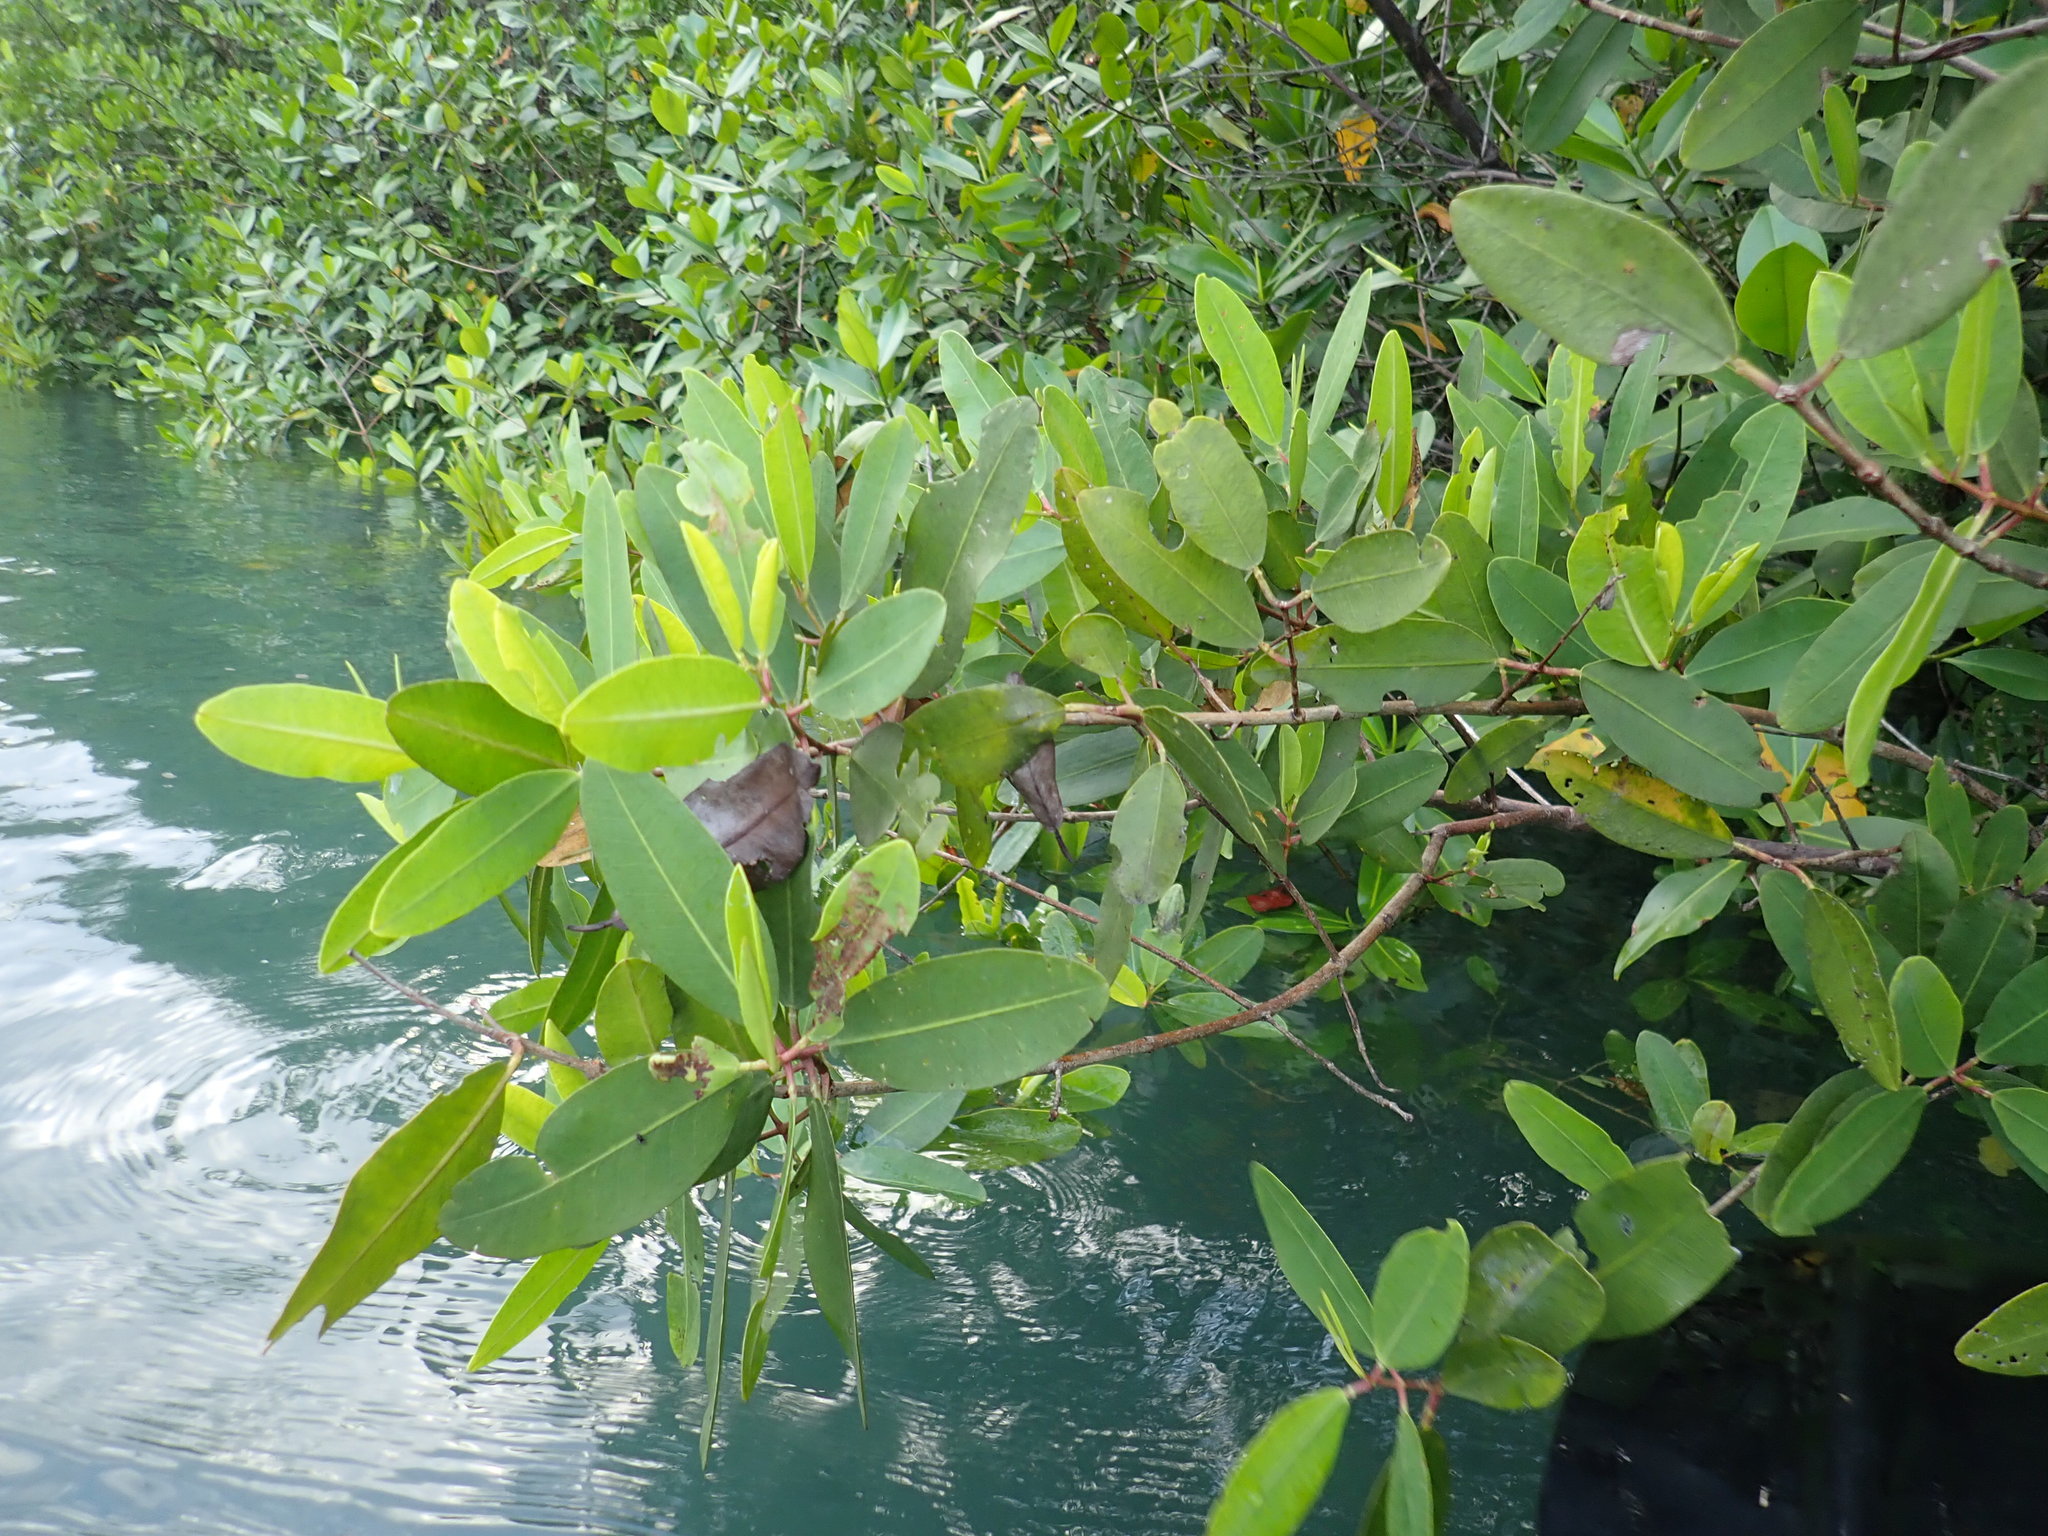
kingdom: Plantae
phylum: Tracheophyta
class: Magnoliopsida
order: Myrtales
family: Combretaceae
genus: Laguncularia
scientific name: Laguncularia racemosa
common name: White mangrove
